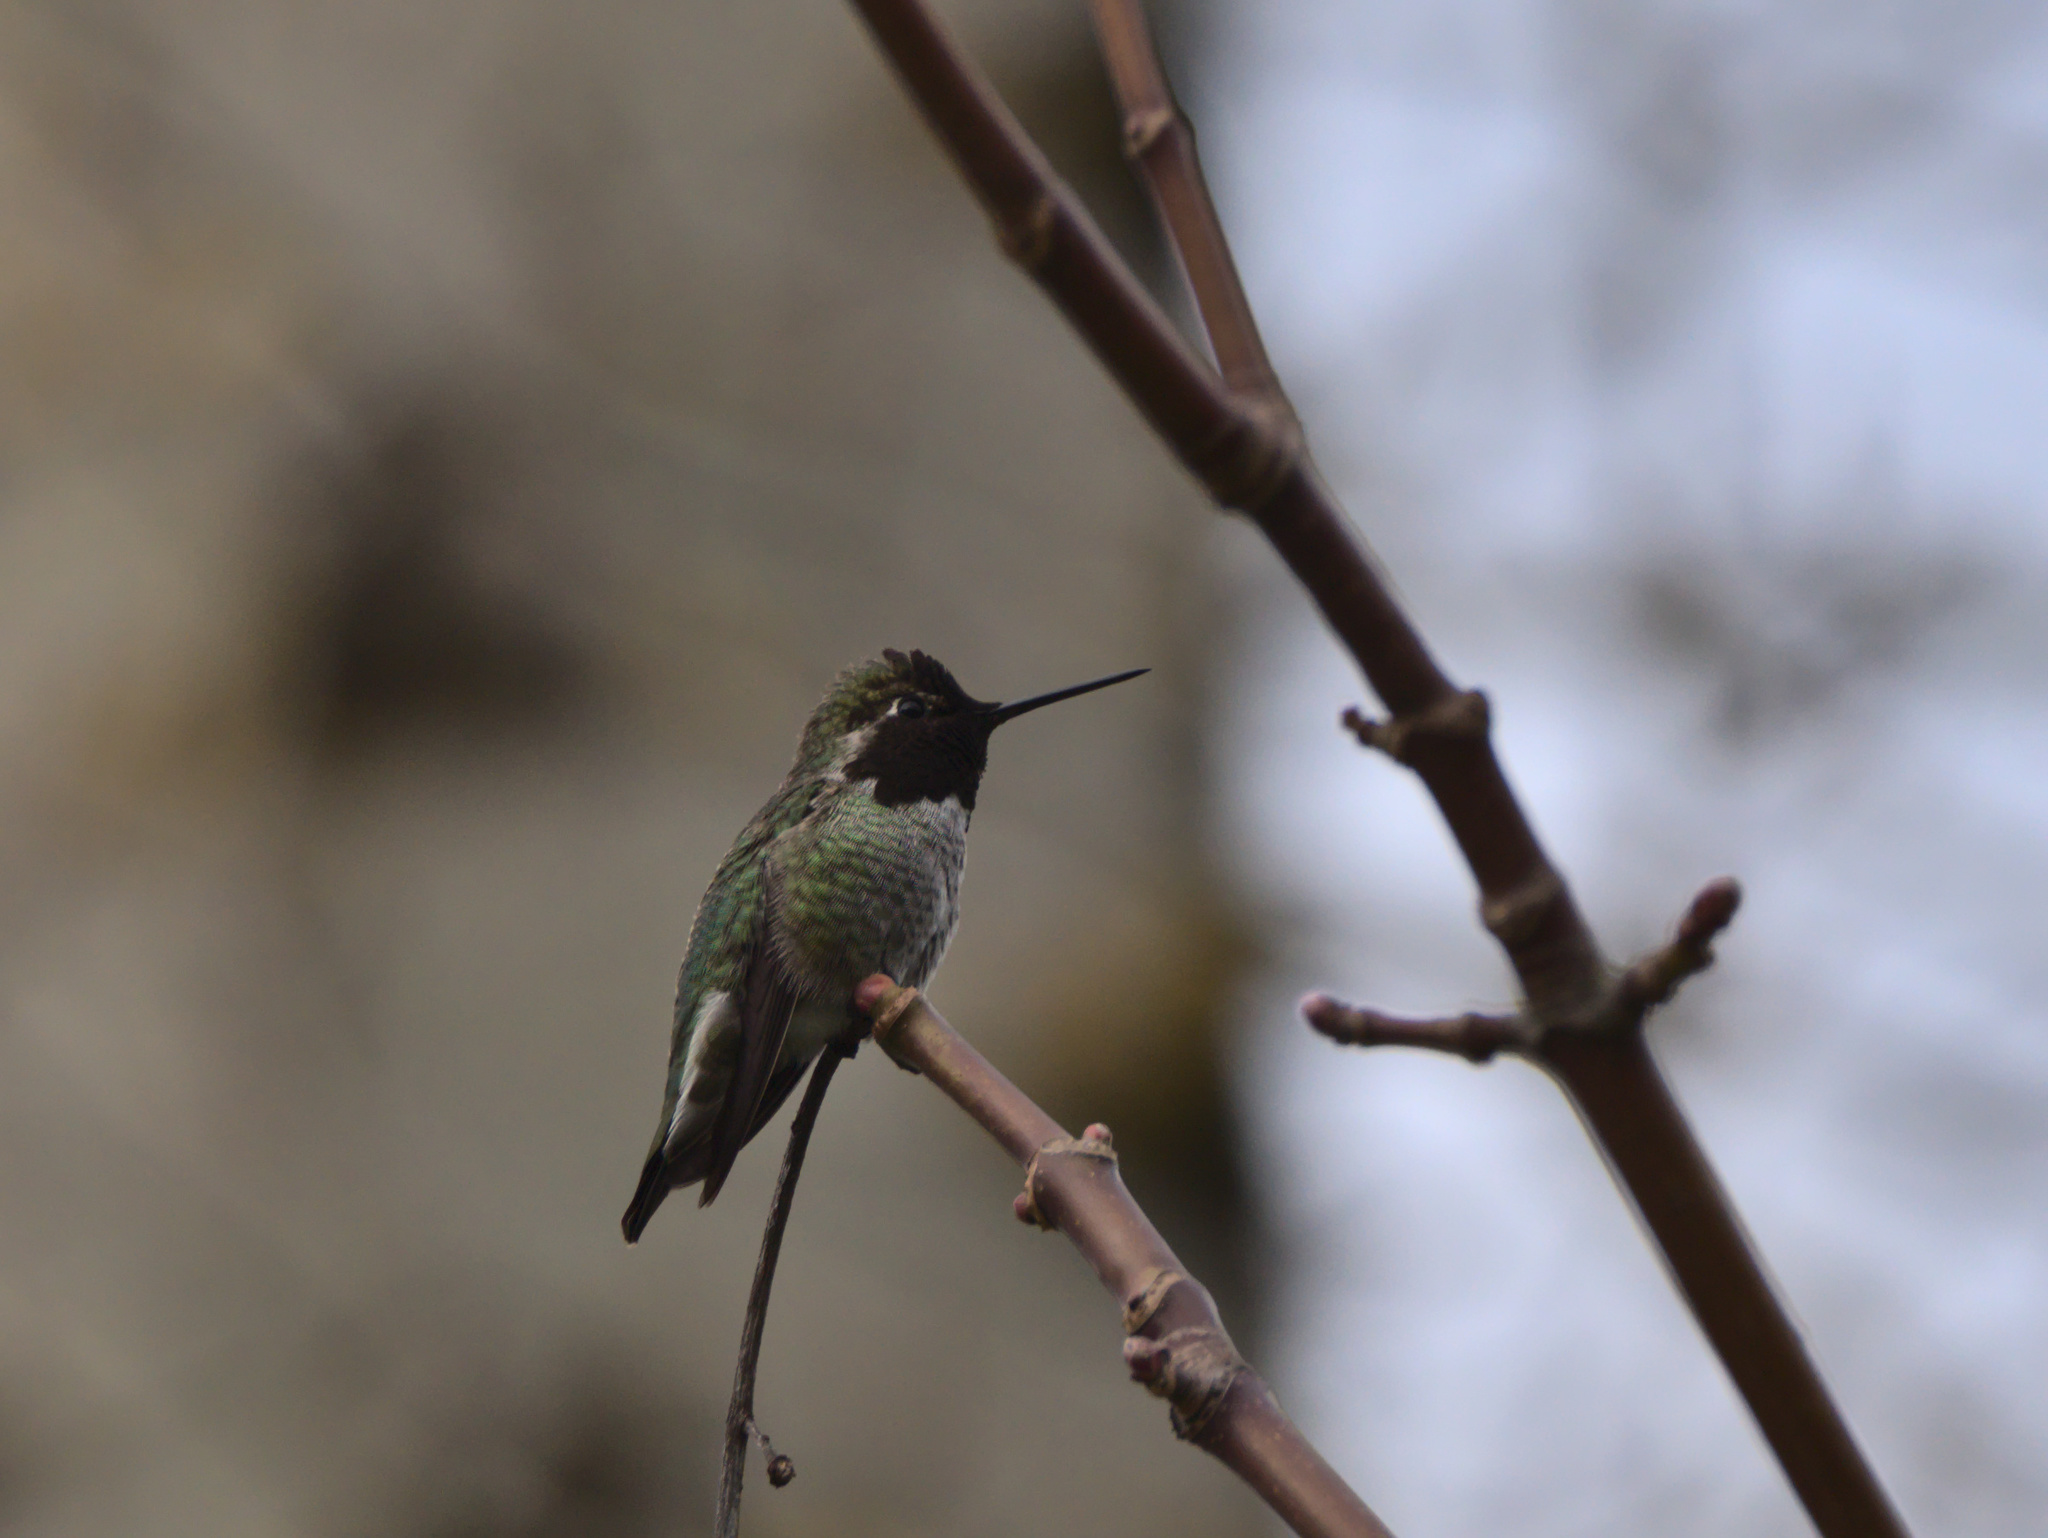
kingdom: Animalia
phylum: Chordata
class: Aves
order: Apodiformes
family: Trochilidae
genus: Calypte
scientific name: Calypte anna
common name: Anna's hummingbird
